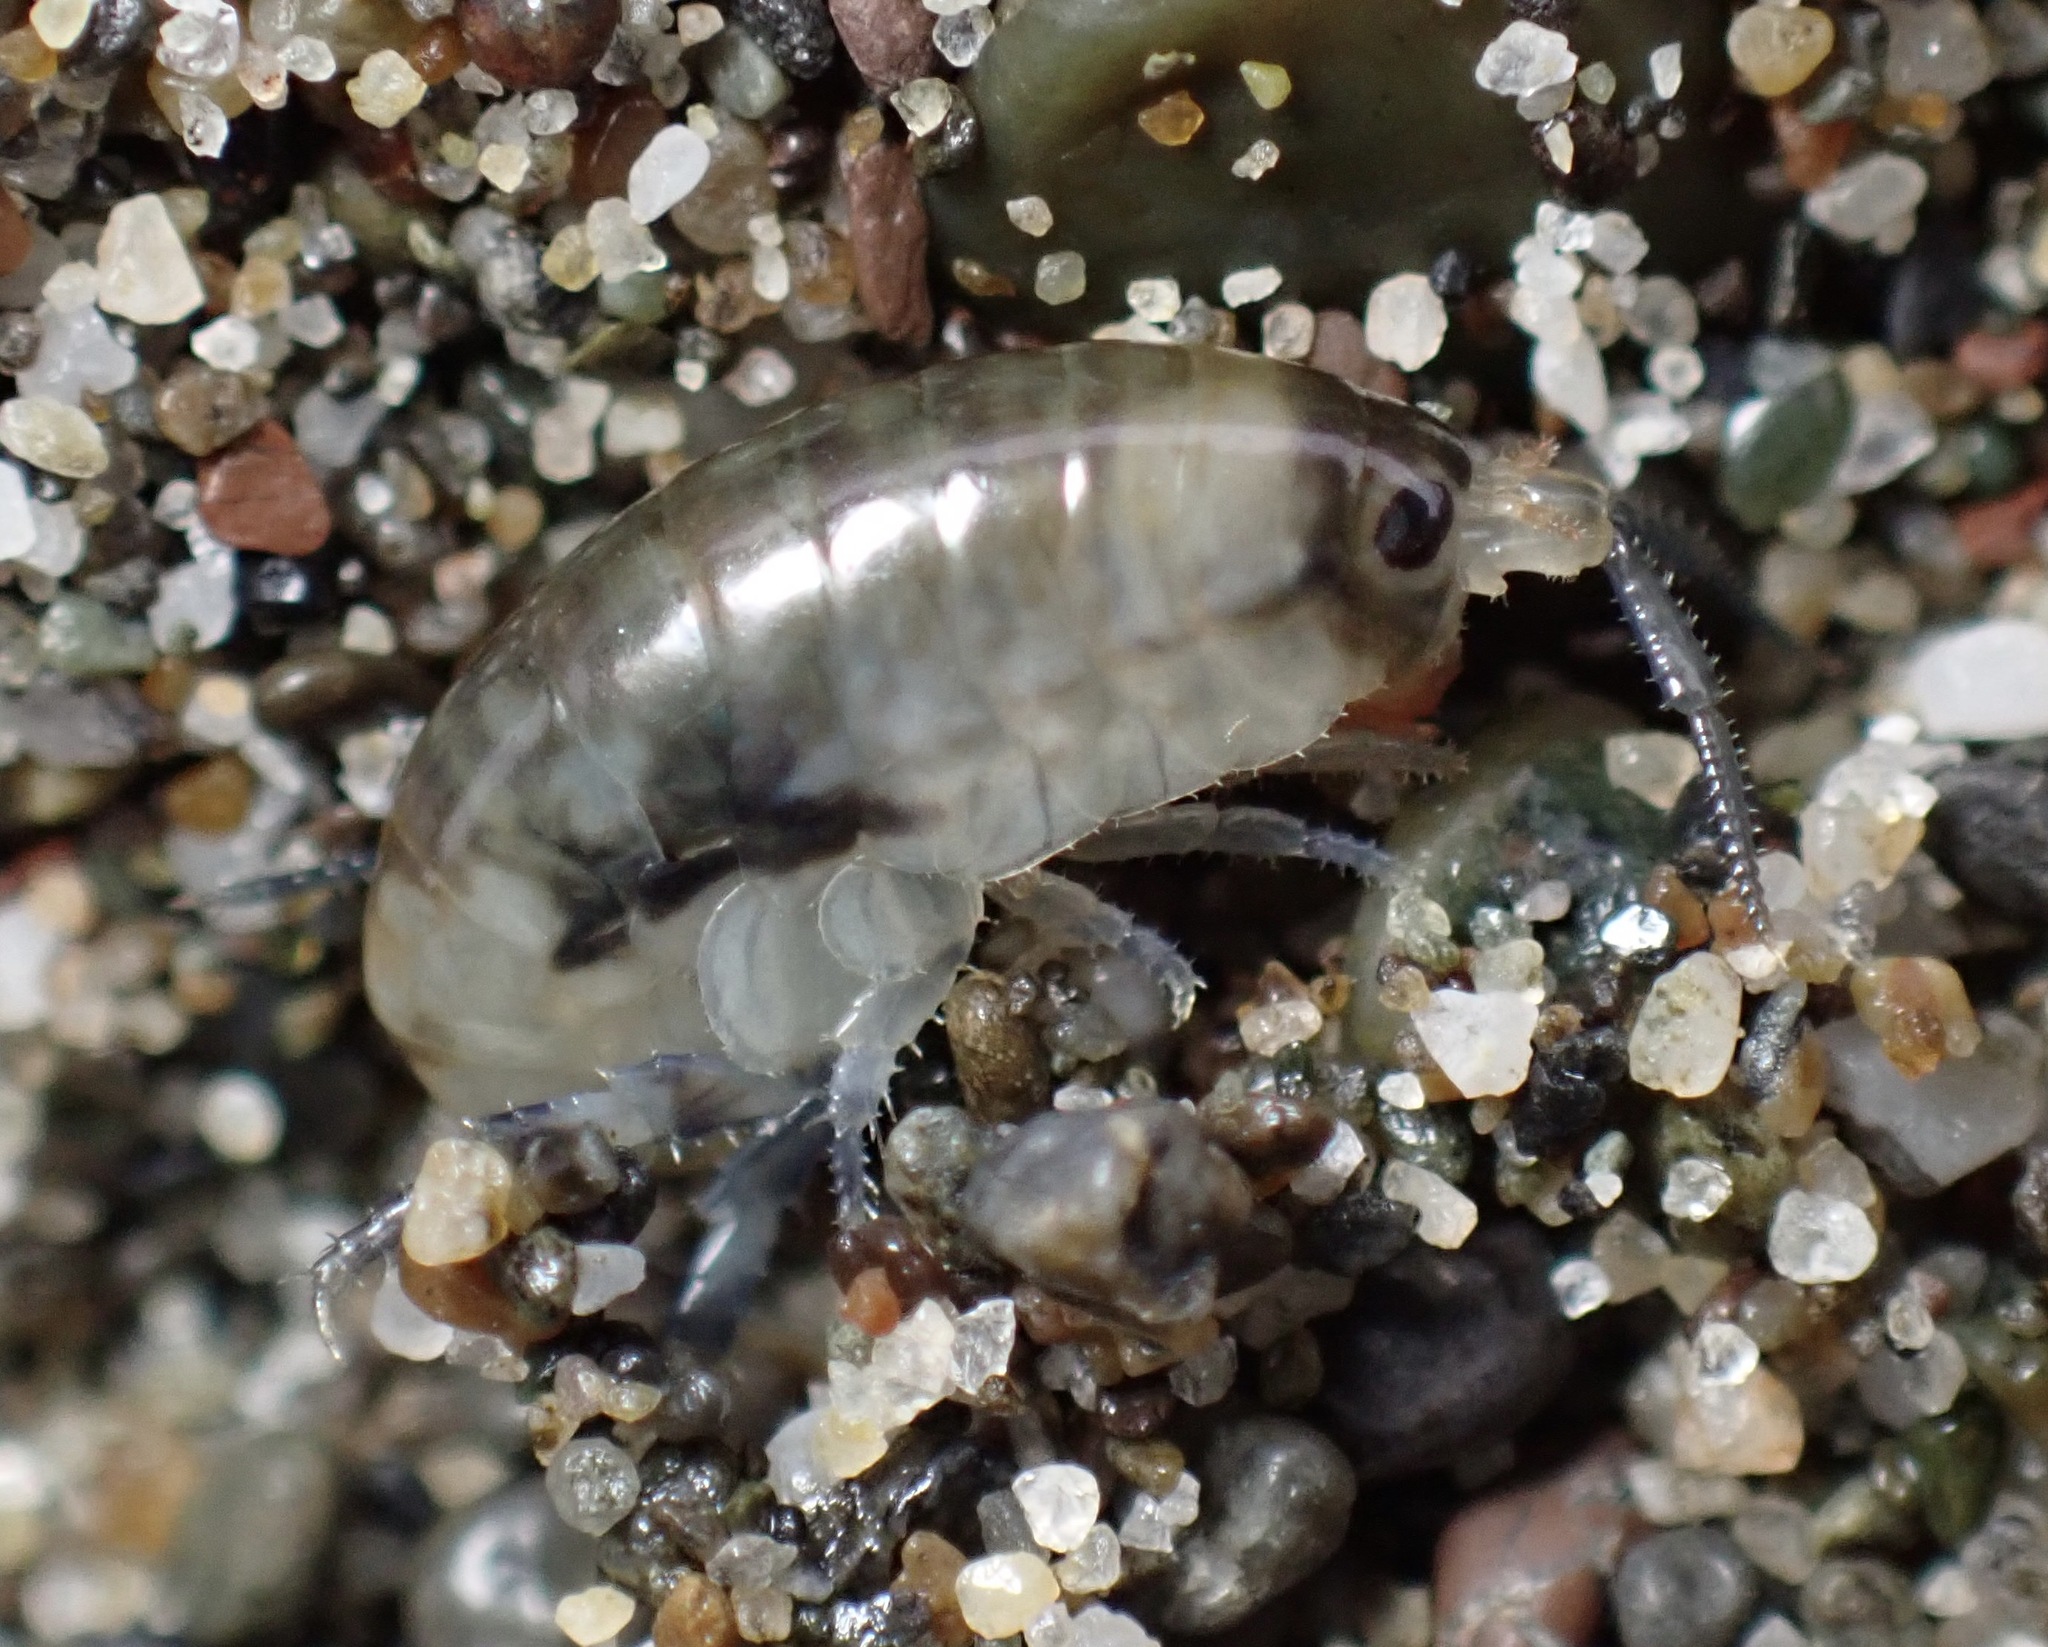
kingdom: Animalia
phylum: Arthropoda
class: Malacostraca
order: Amphipoda
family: Talitridae
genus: Megalorchestia
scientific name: Megalorchestia pugettensis
